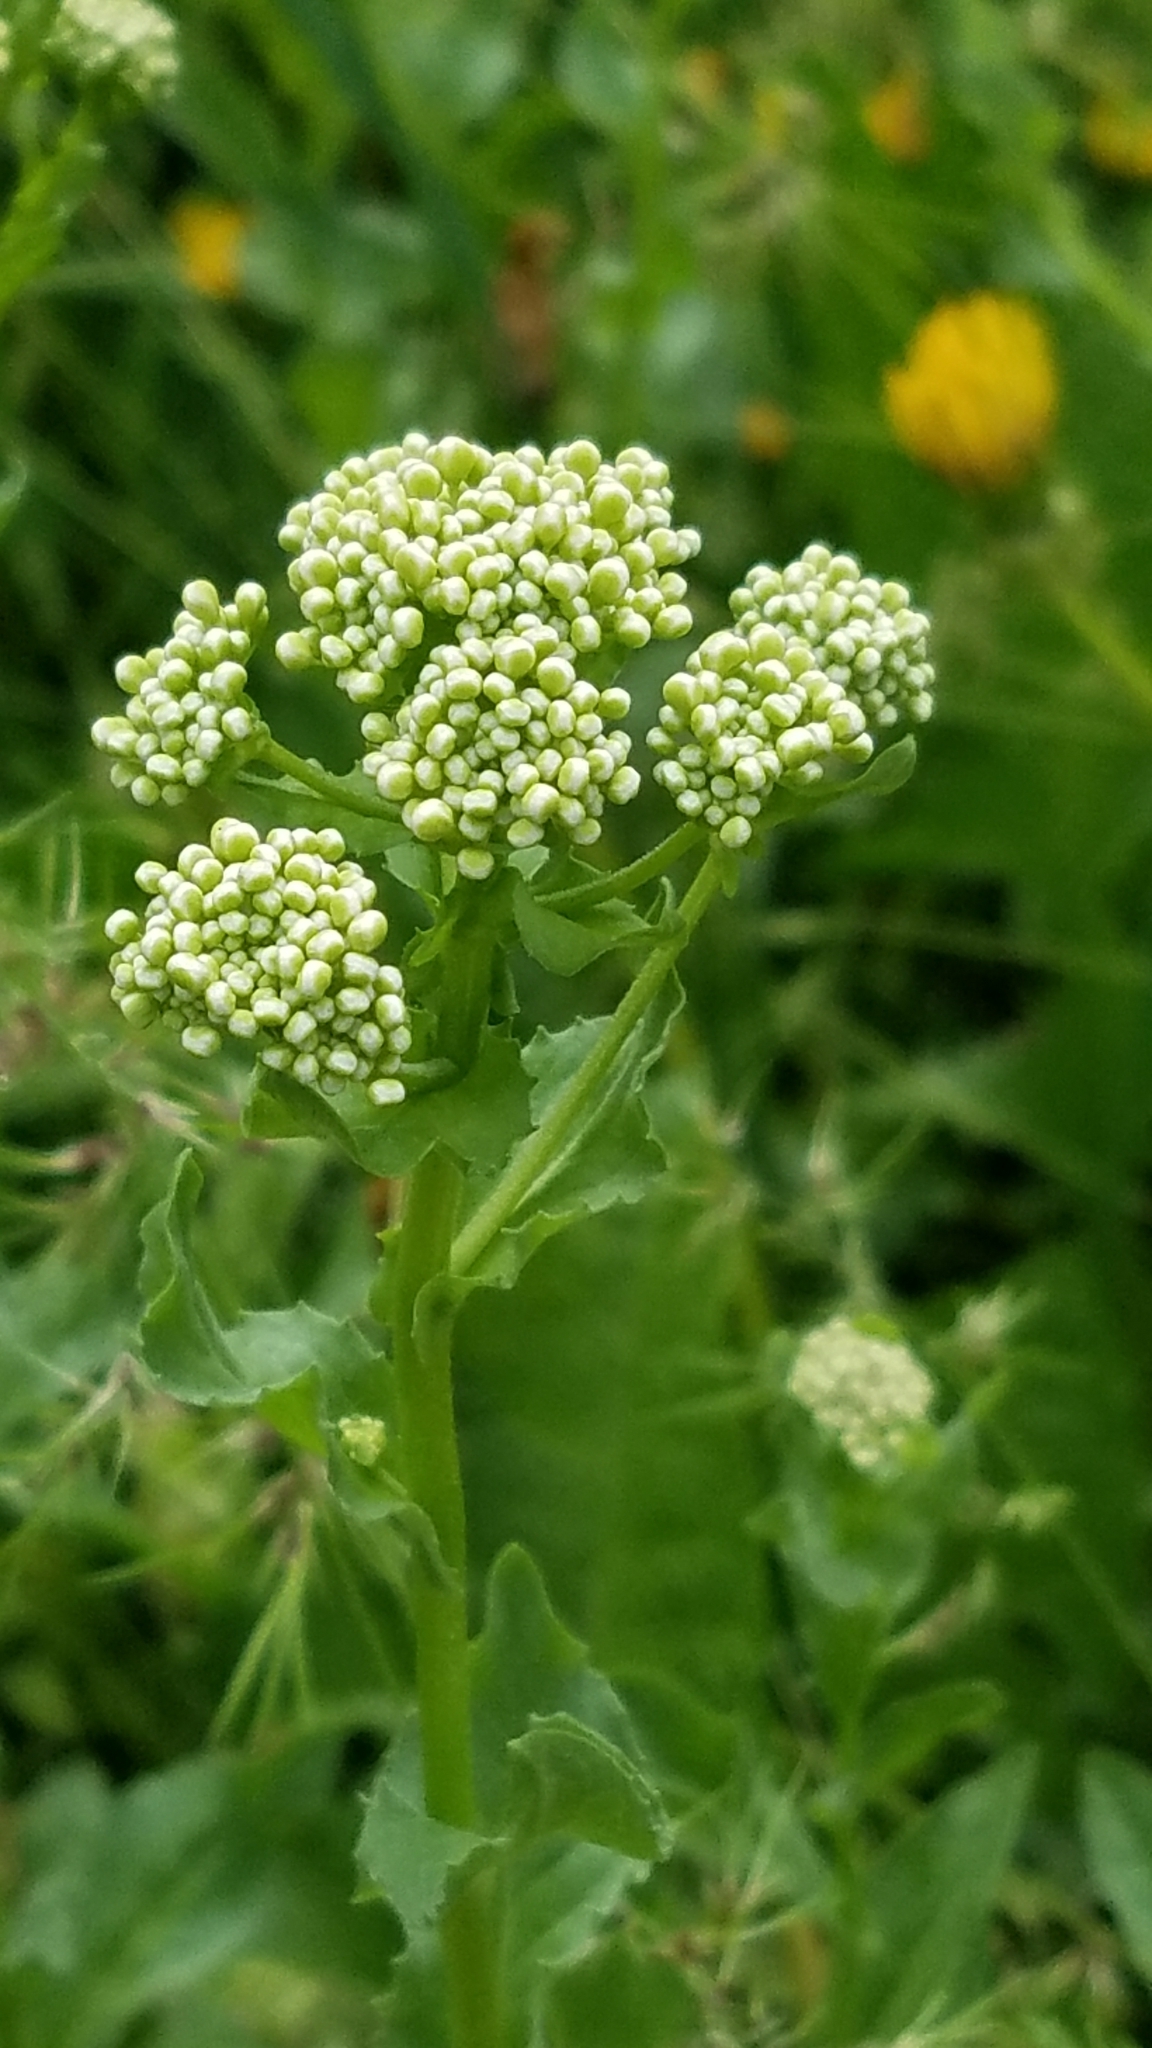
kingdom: Plantae
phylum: Tracheophyta
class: Magnoliopsida
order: Brassicales
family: Brassicaceae
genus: Lepidium
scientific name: Lepidium draba
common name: Hoary cress
